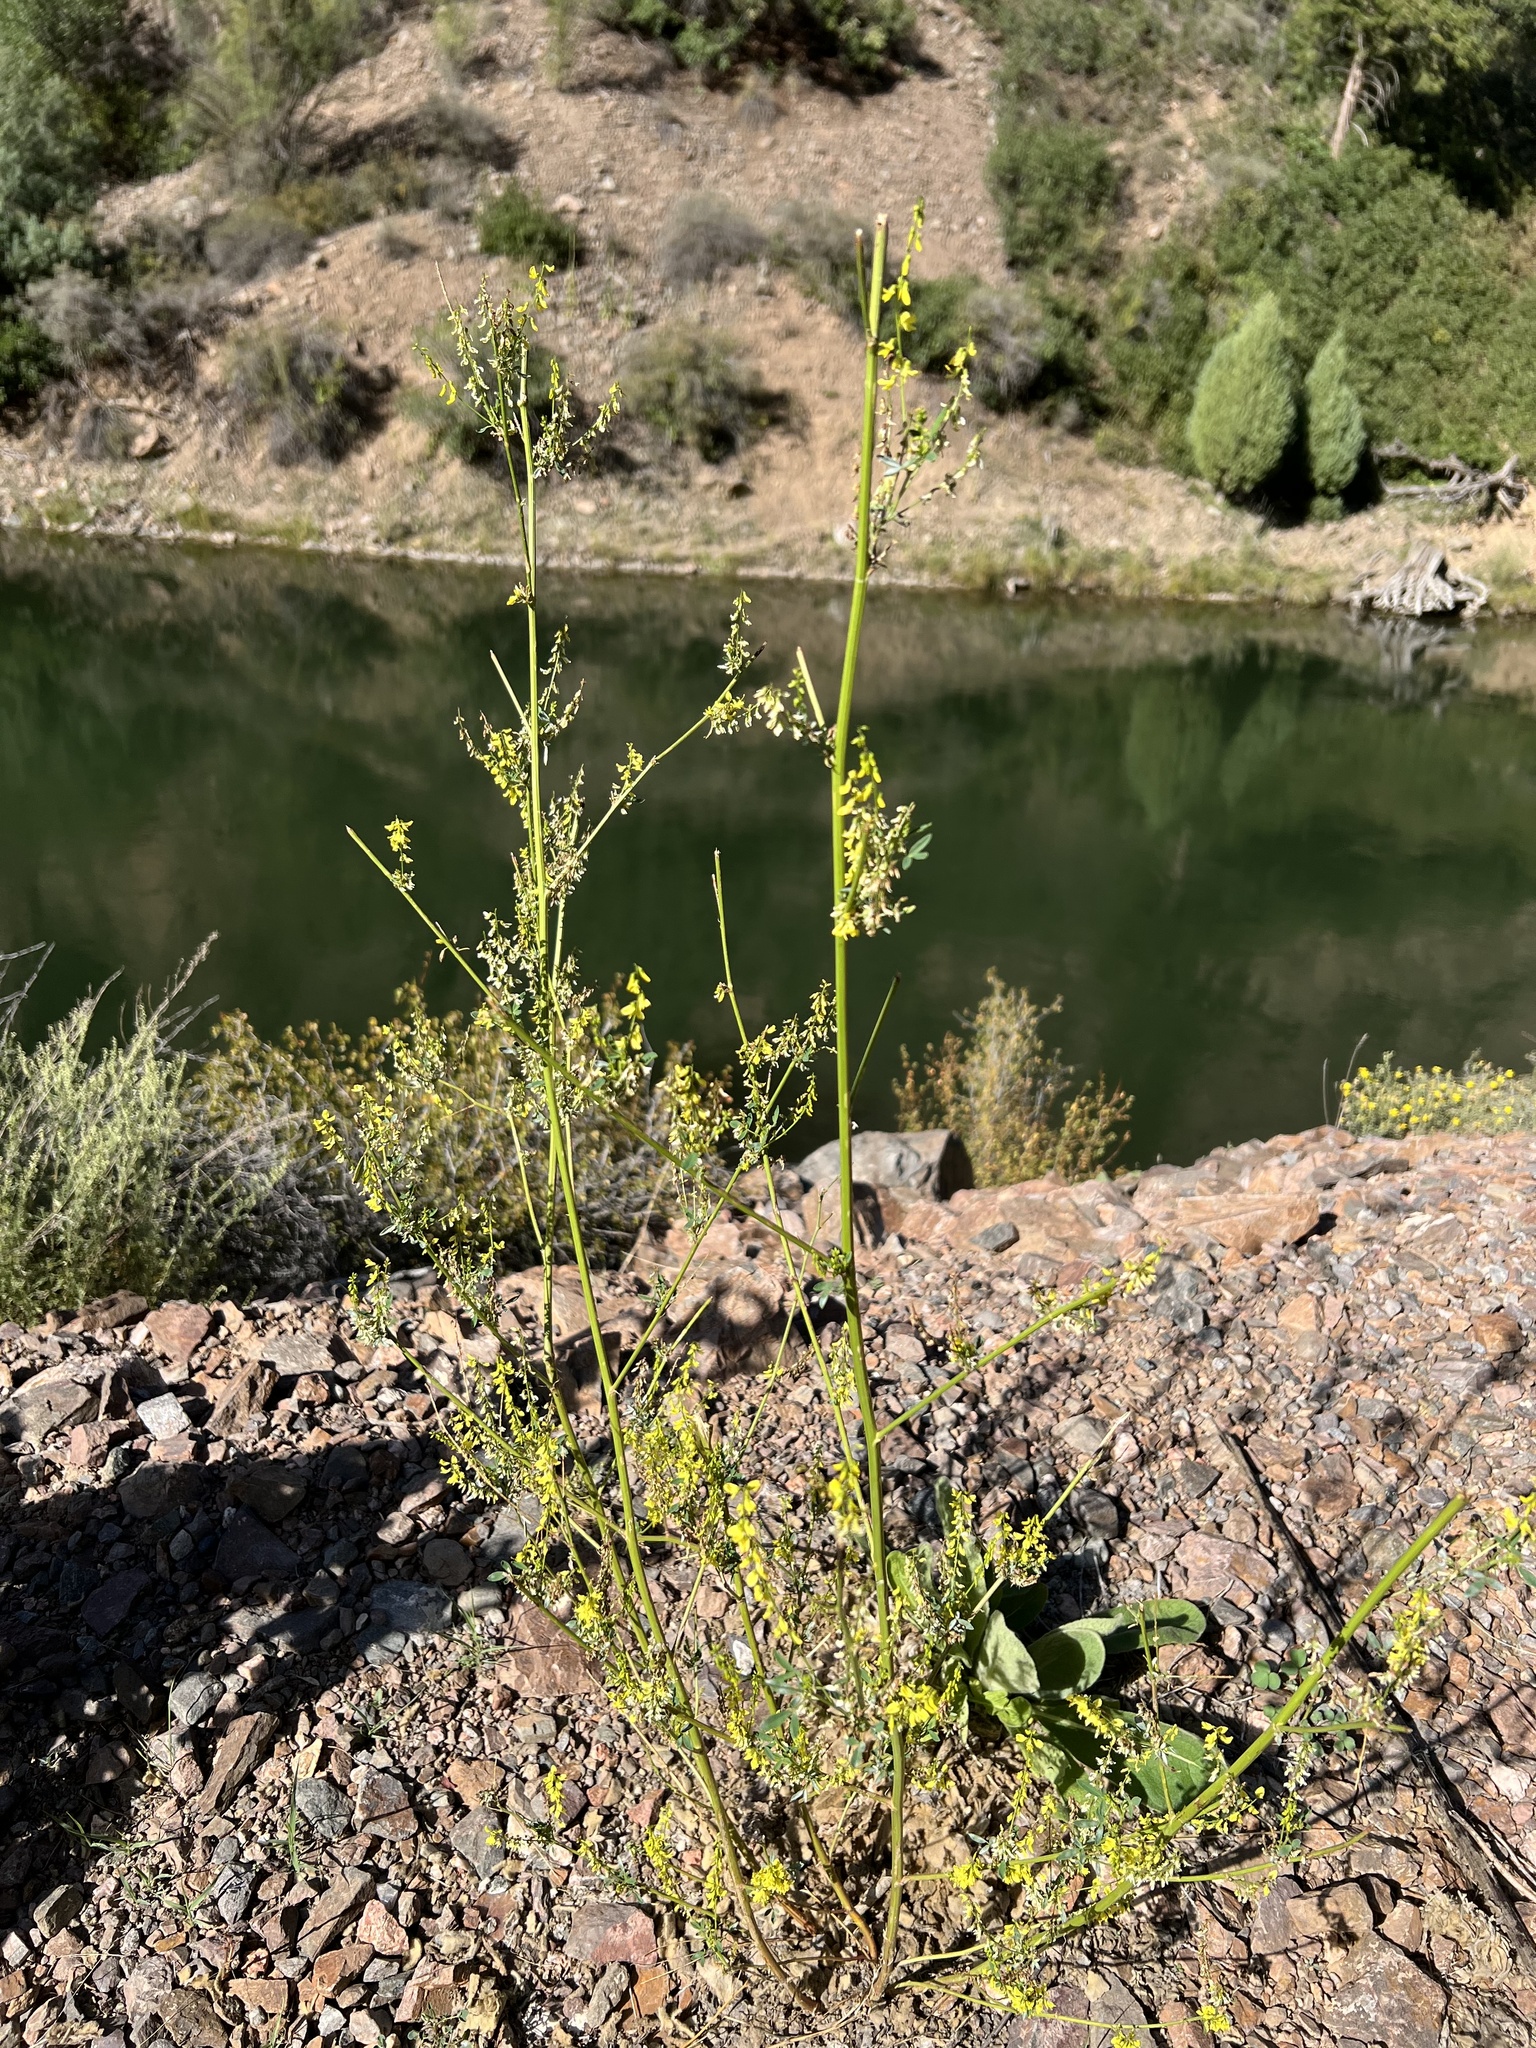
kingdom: Plantae
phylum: Tracheophyta
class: Magnoliopsida
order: Fabales
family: Fabaceae
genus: Melilotus
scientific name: Melilotus officinalis
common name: Sweetclover
